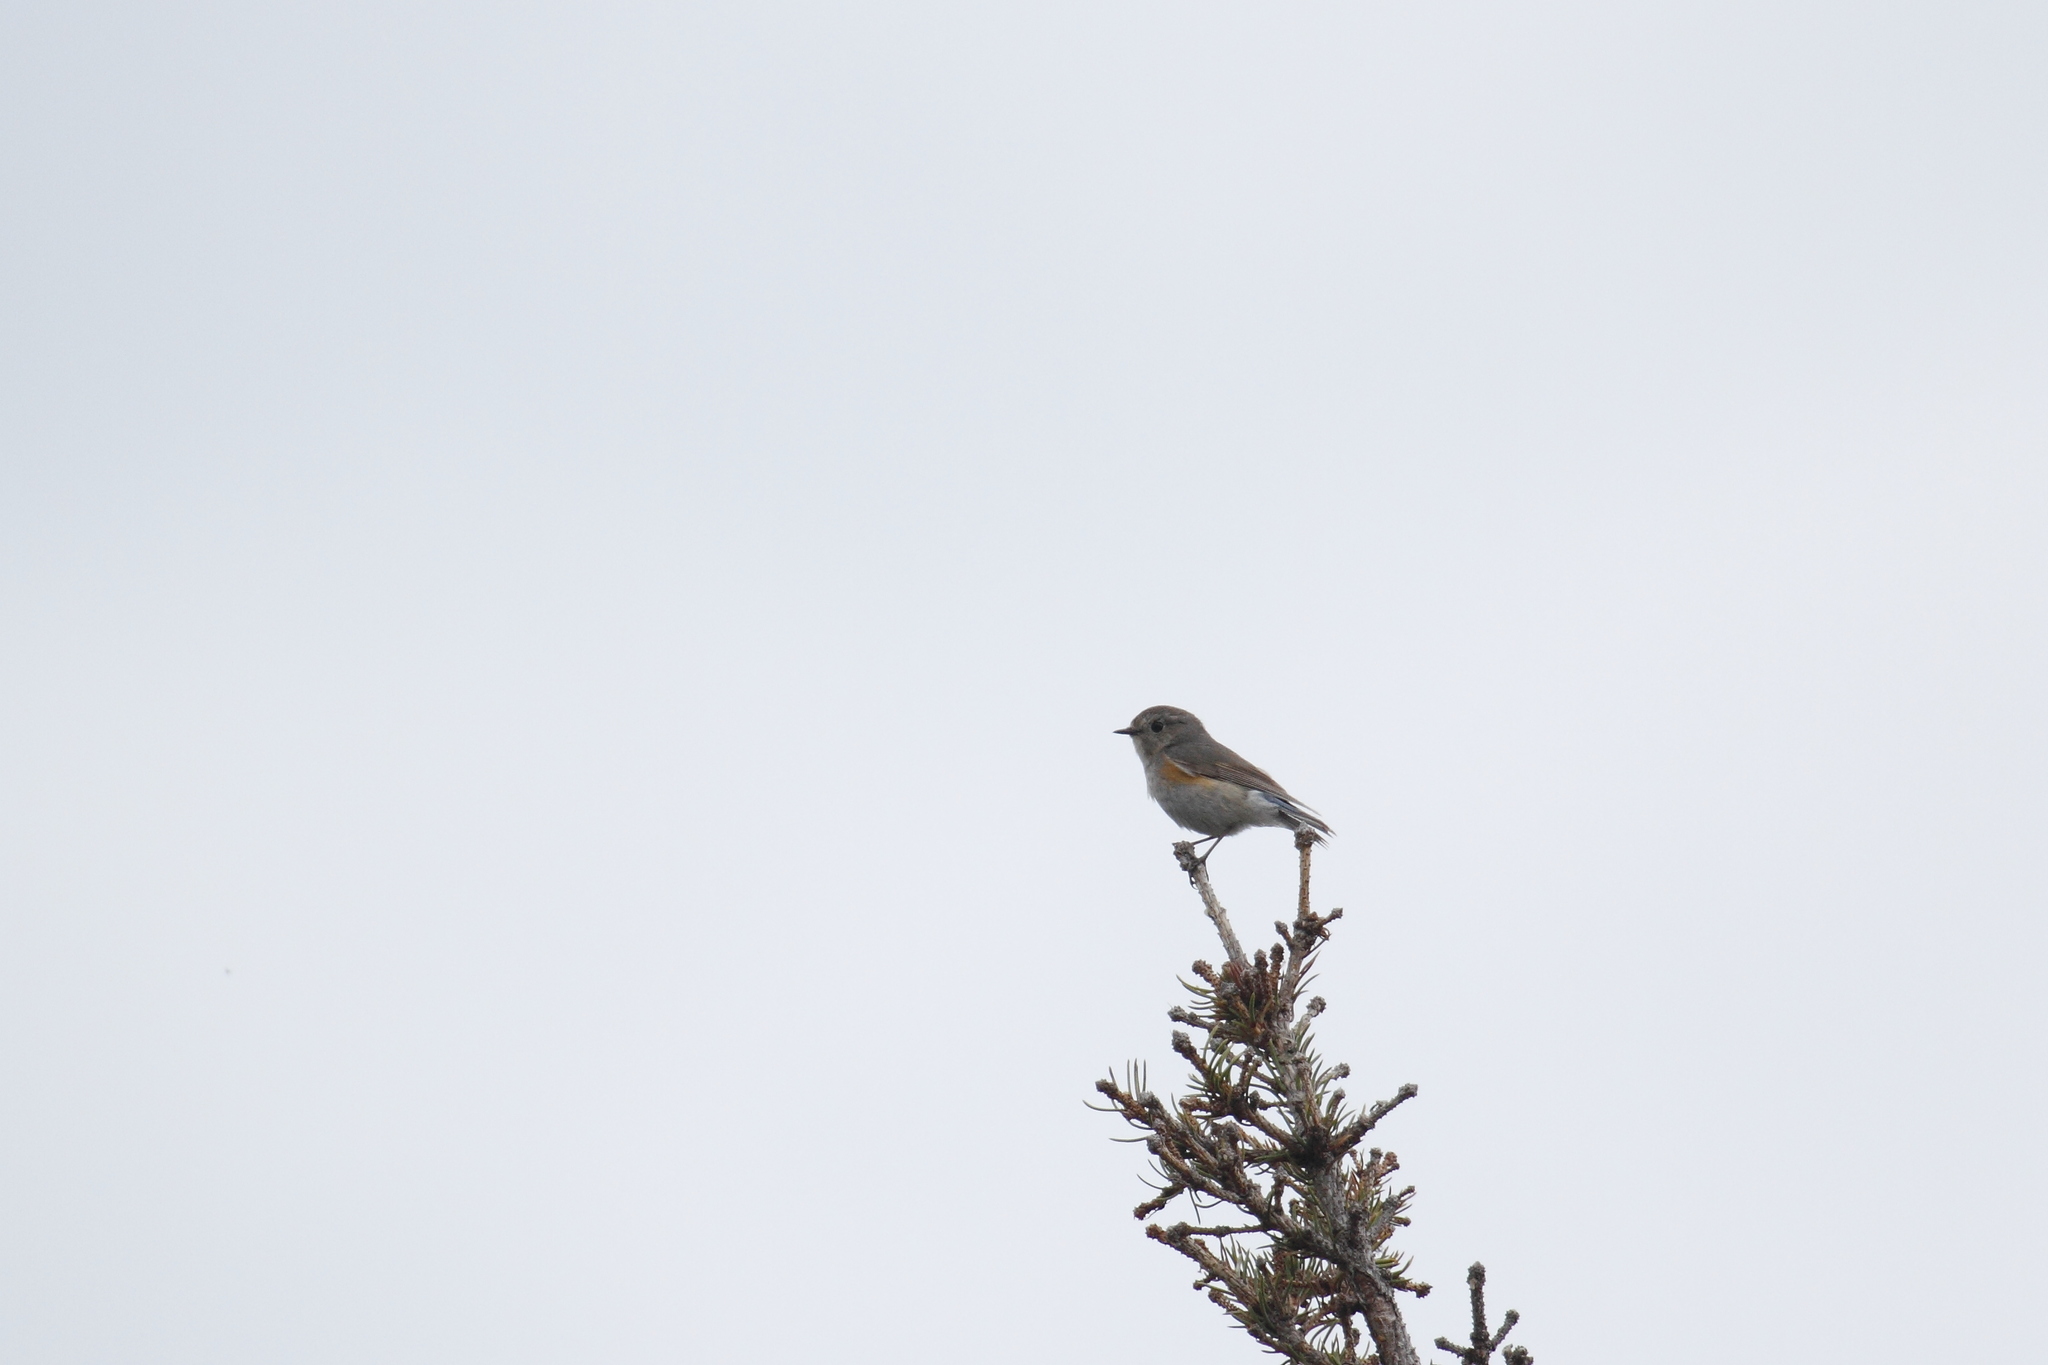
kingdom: Animalia
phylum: Chordata
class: Aves
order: Passeriformes
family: Muscicapidae
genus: Tarsiger
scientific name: Tarsiger cyanurus
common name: Red-flanked bluetail
